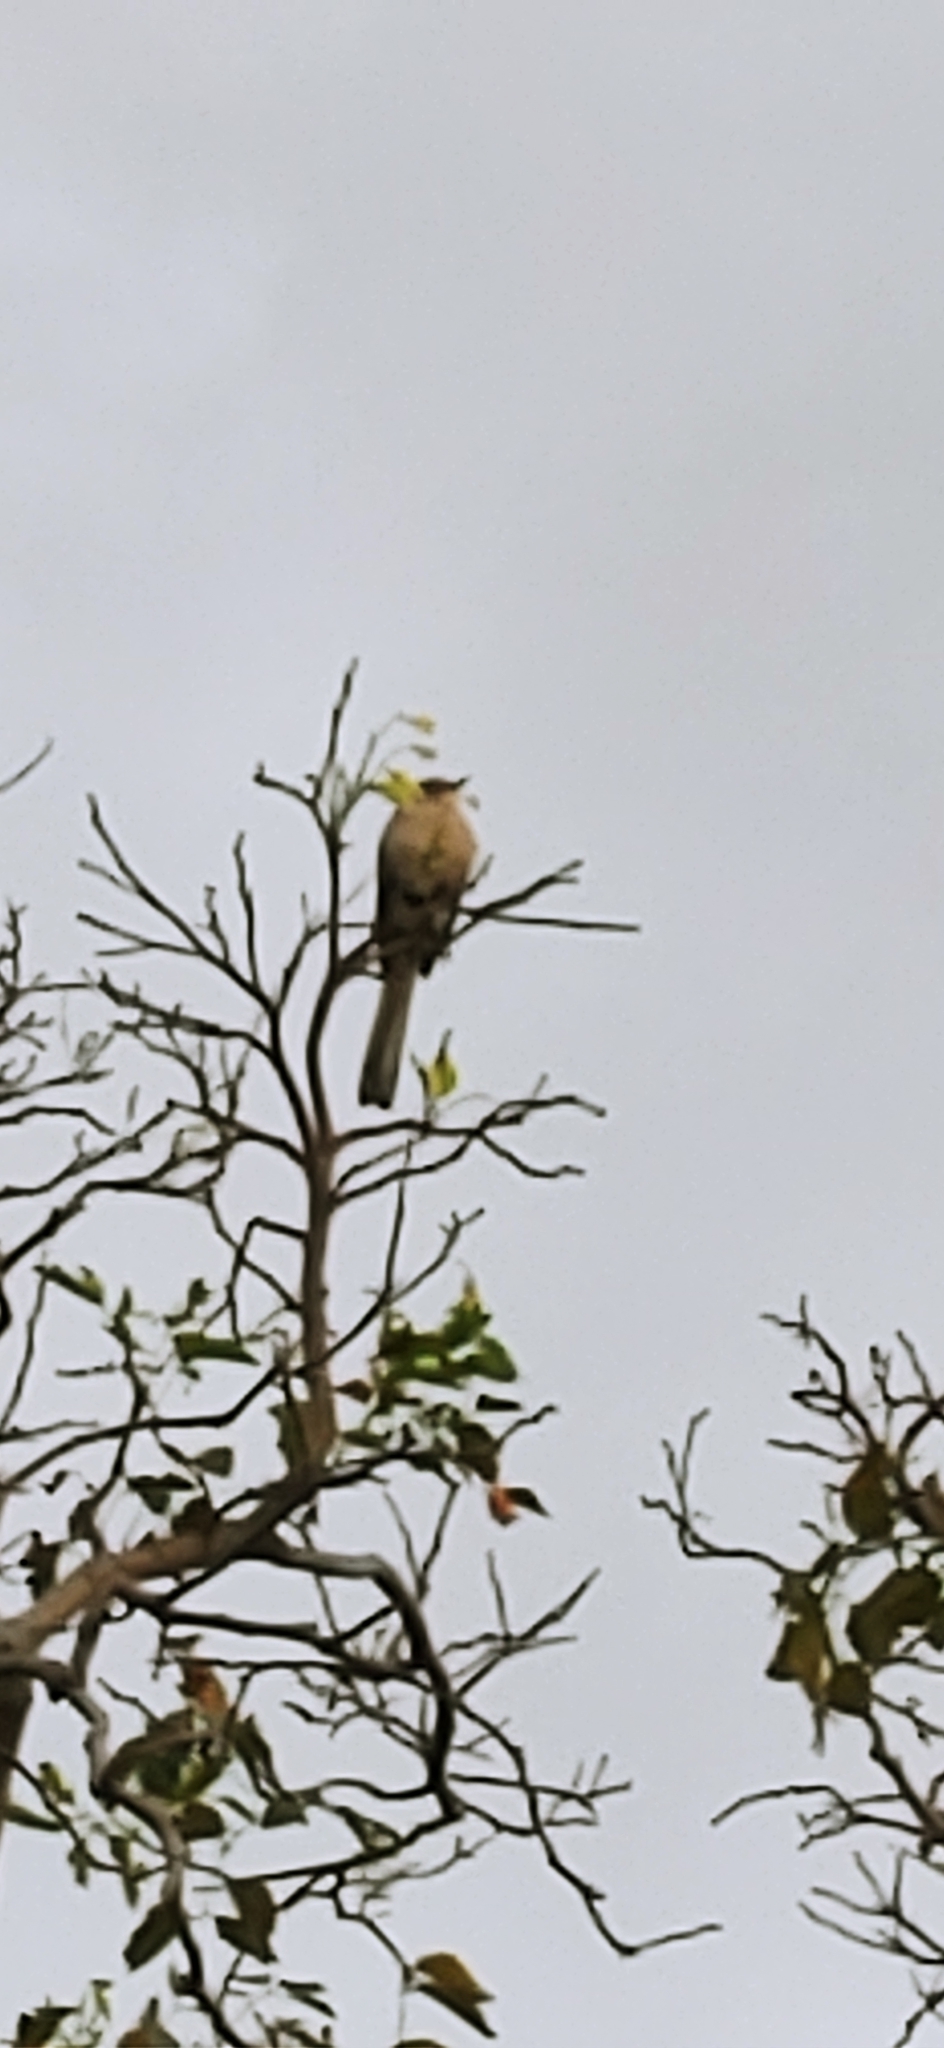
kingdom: Animalia
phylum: Chordata
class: Aves
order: Passeriformes
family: Mimidae
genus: Mimus
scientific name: Mimus polyglottos
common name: Northern mockingbird
